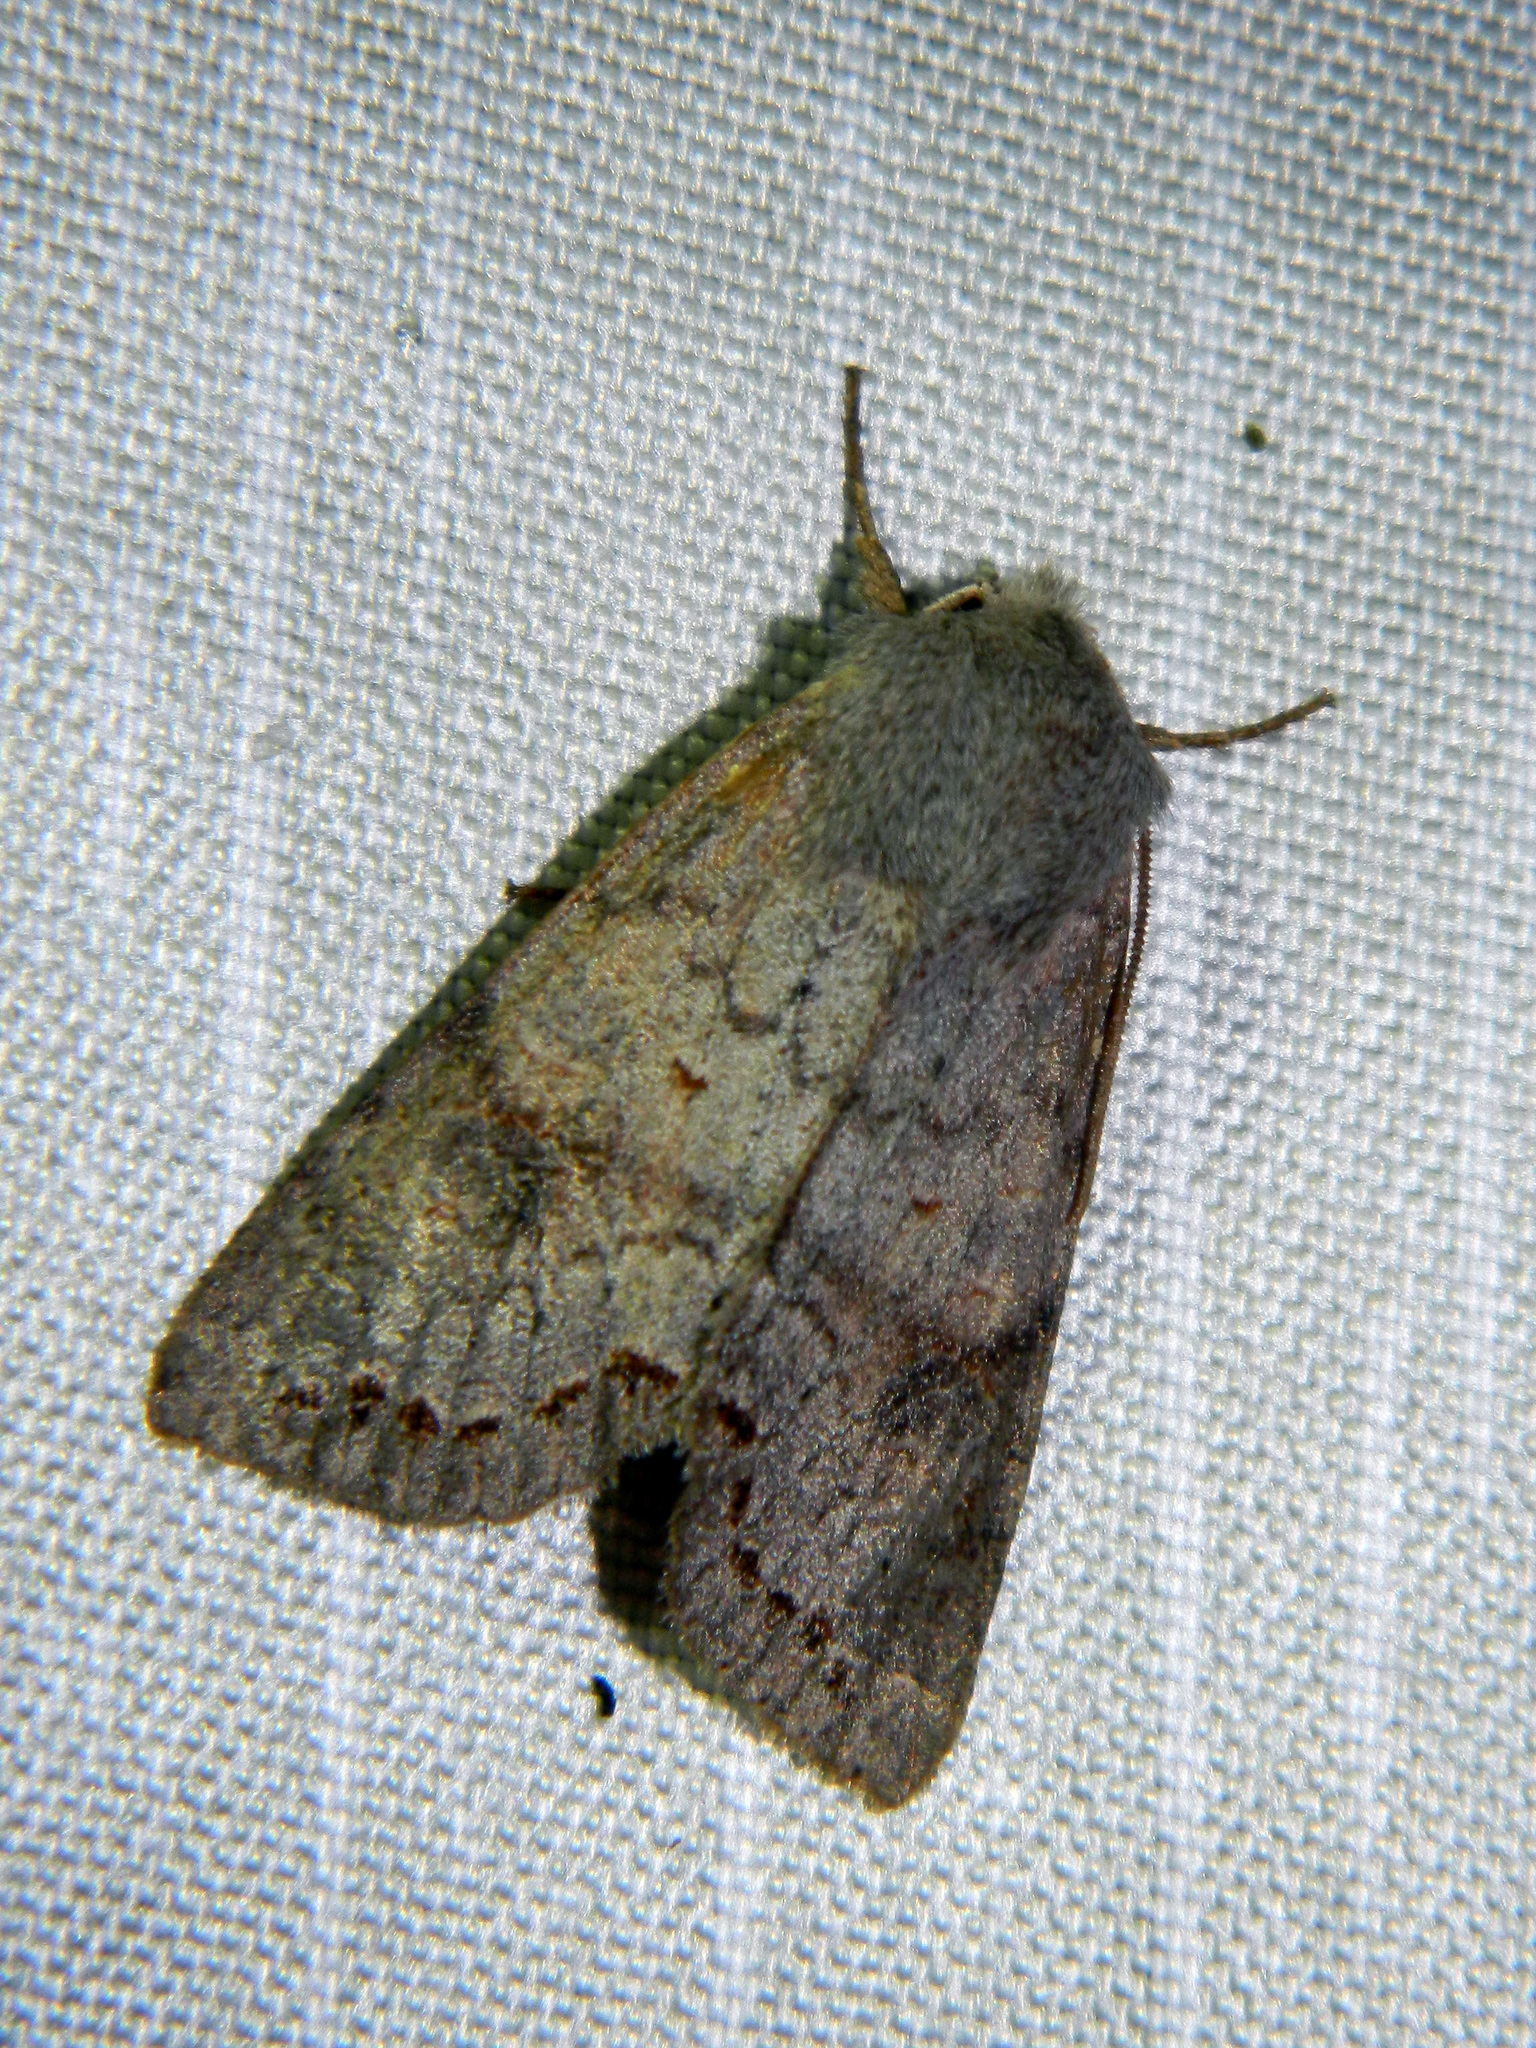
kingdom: Animalia
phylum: Arthropoda
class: Insecta
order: Lepidoptera
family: Noctuidae
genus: Orthosia
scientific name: Orthosia revicta
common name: Rusty whitesided caterpillar
